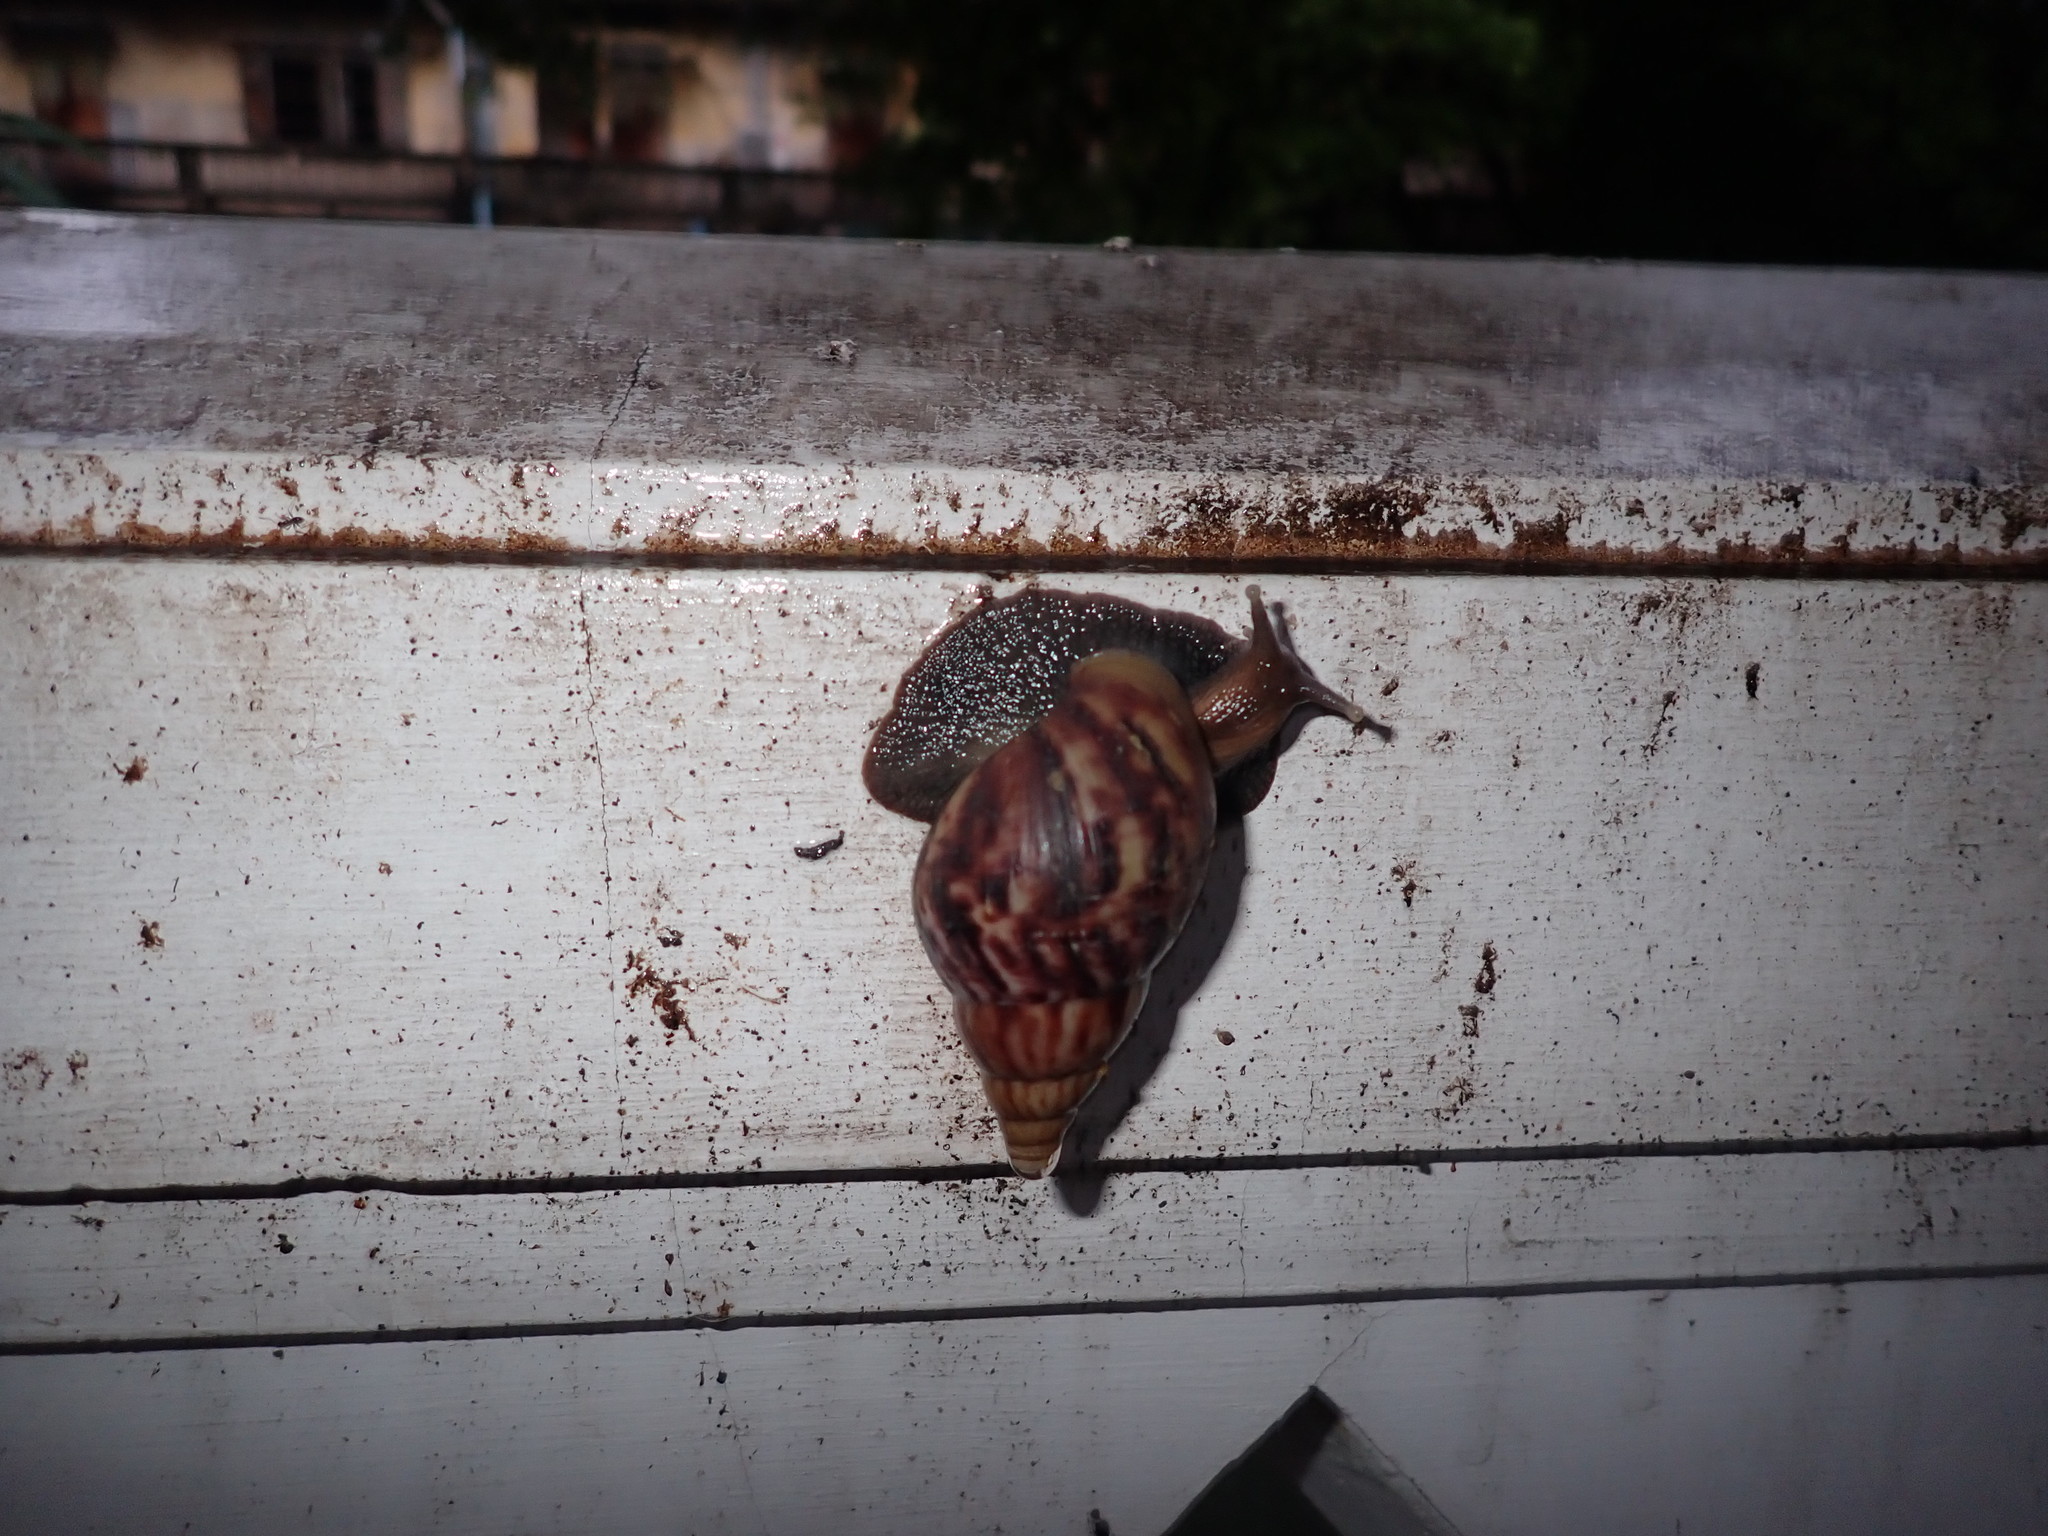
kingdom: Animalia
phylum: Mollusca
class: Gastropoda
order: Stylommatophora
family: Achatinidae
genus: Lissachatina
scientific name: Lissachatina fulica
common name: Giant african snail
